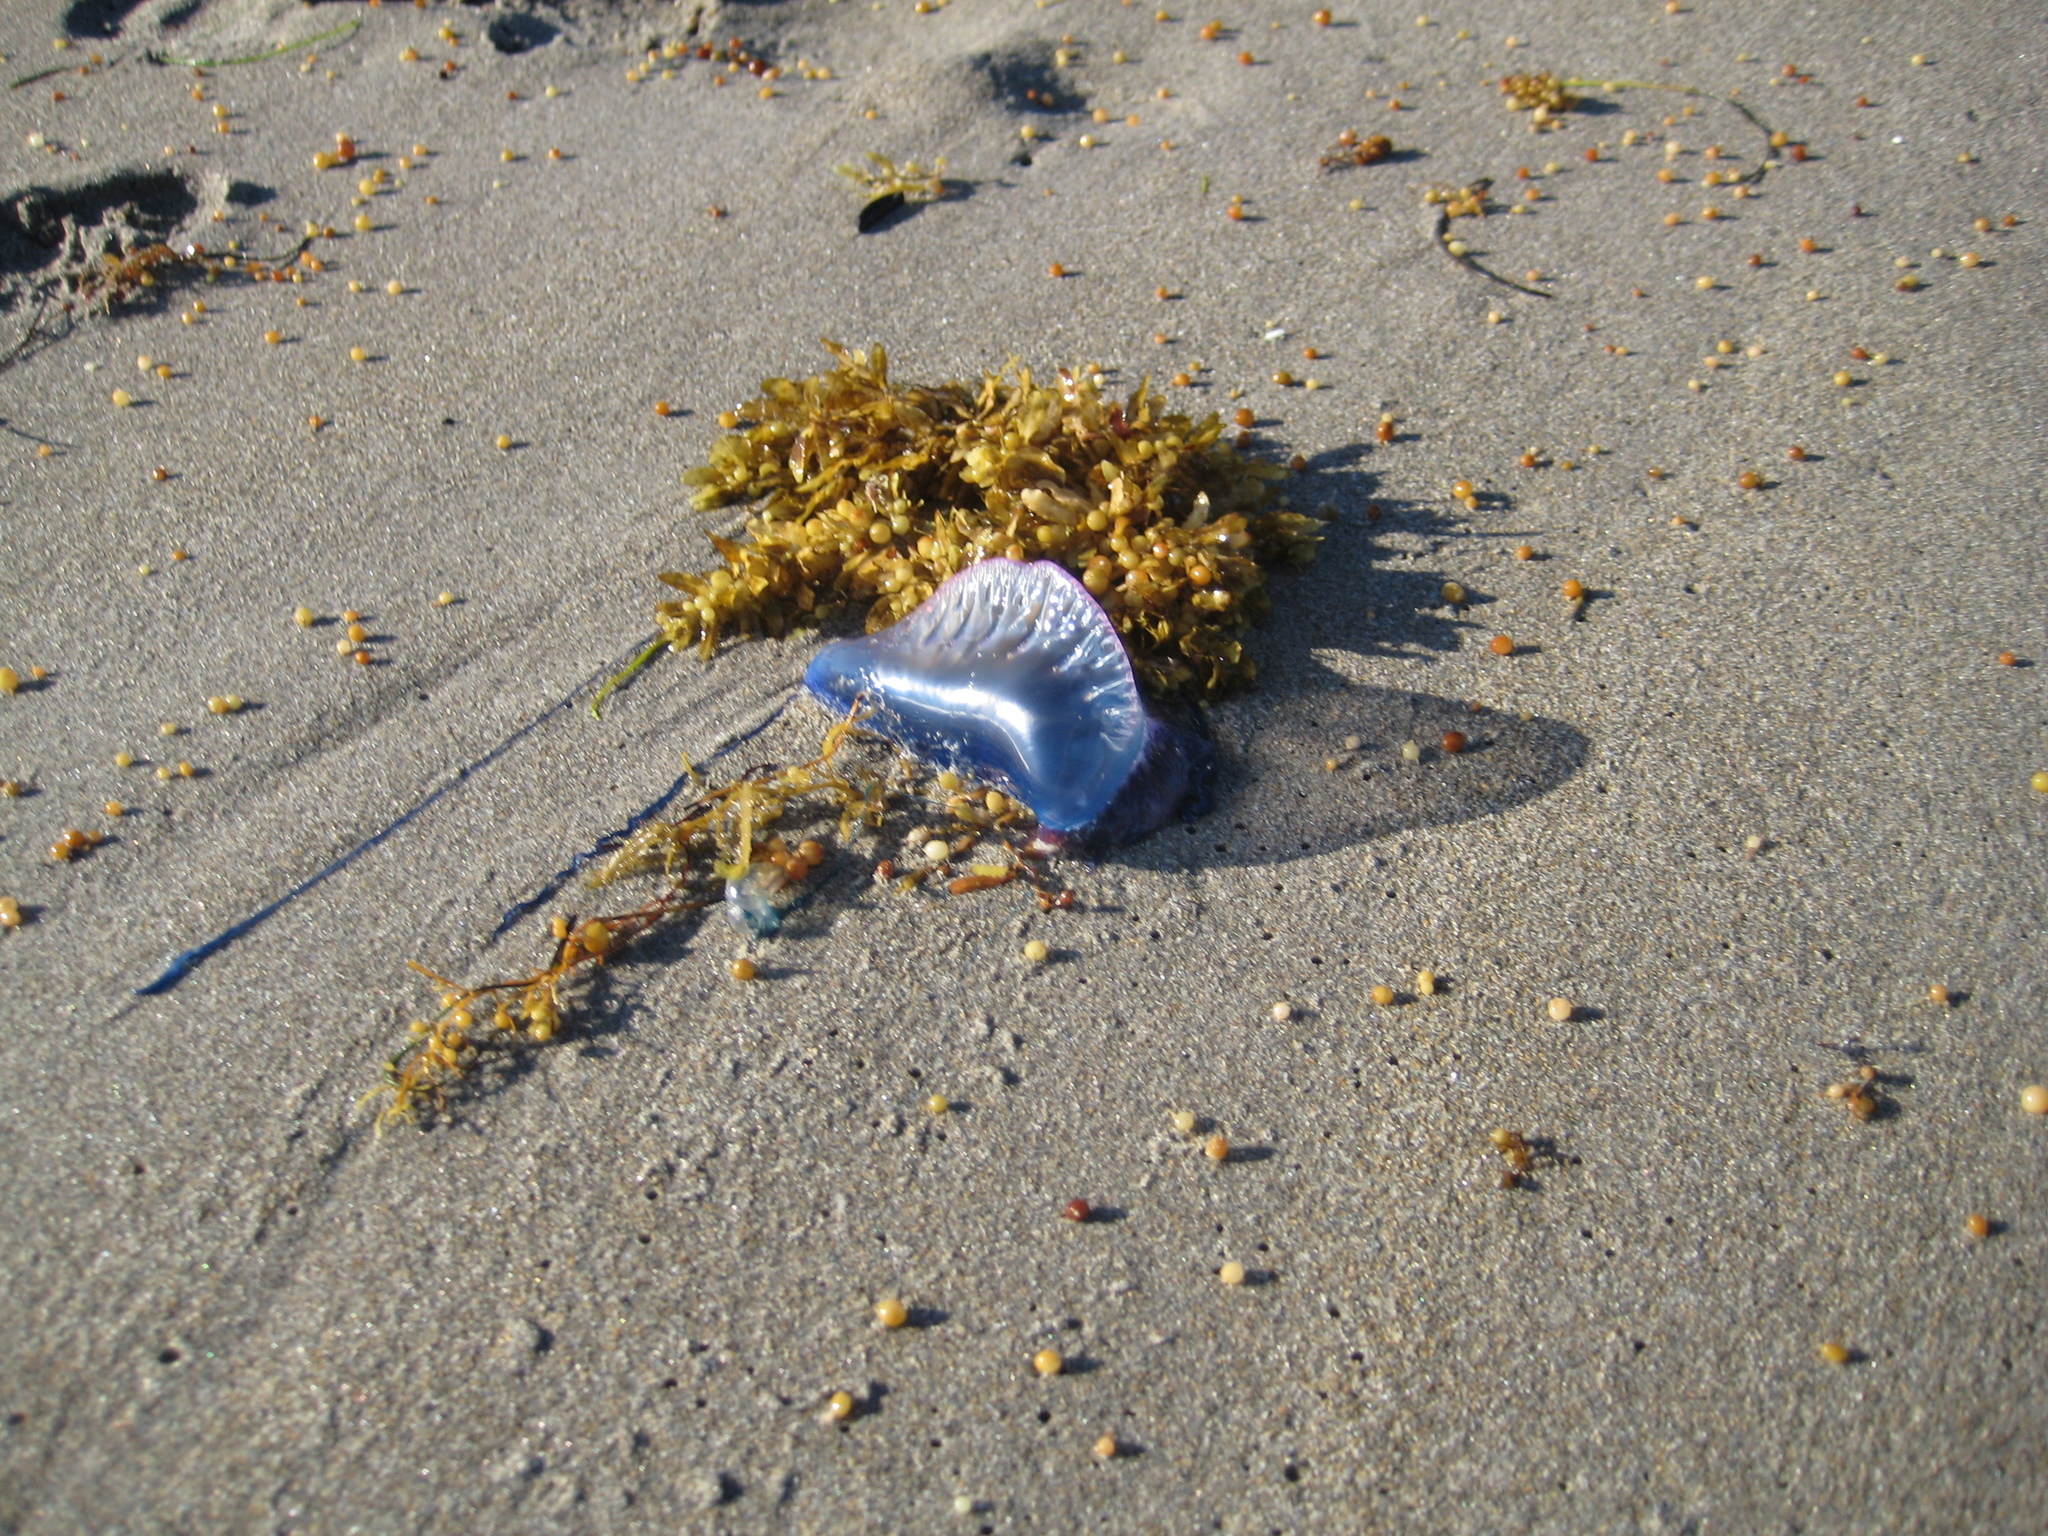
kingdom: Animalia
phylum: Cnidaria
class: Hydrozoa
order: Siphonophorae
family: Physaliidae
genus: Physalia
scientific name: Physalia physalis
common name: Portuguese man-of-war
